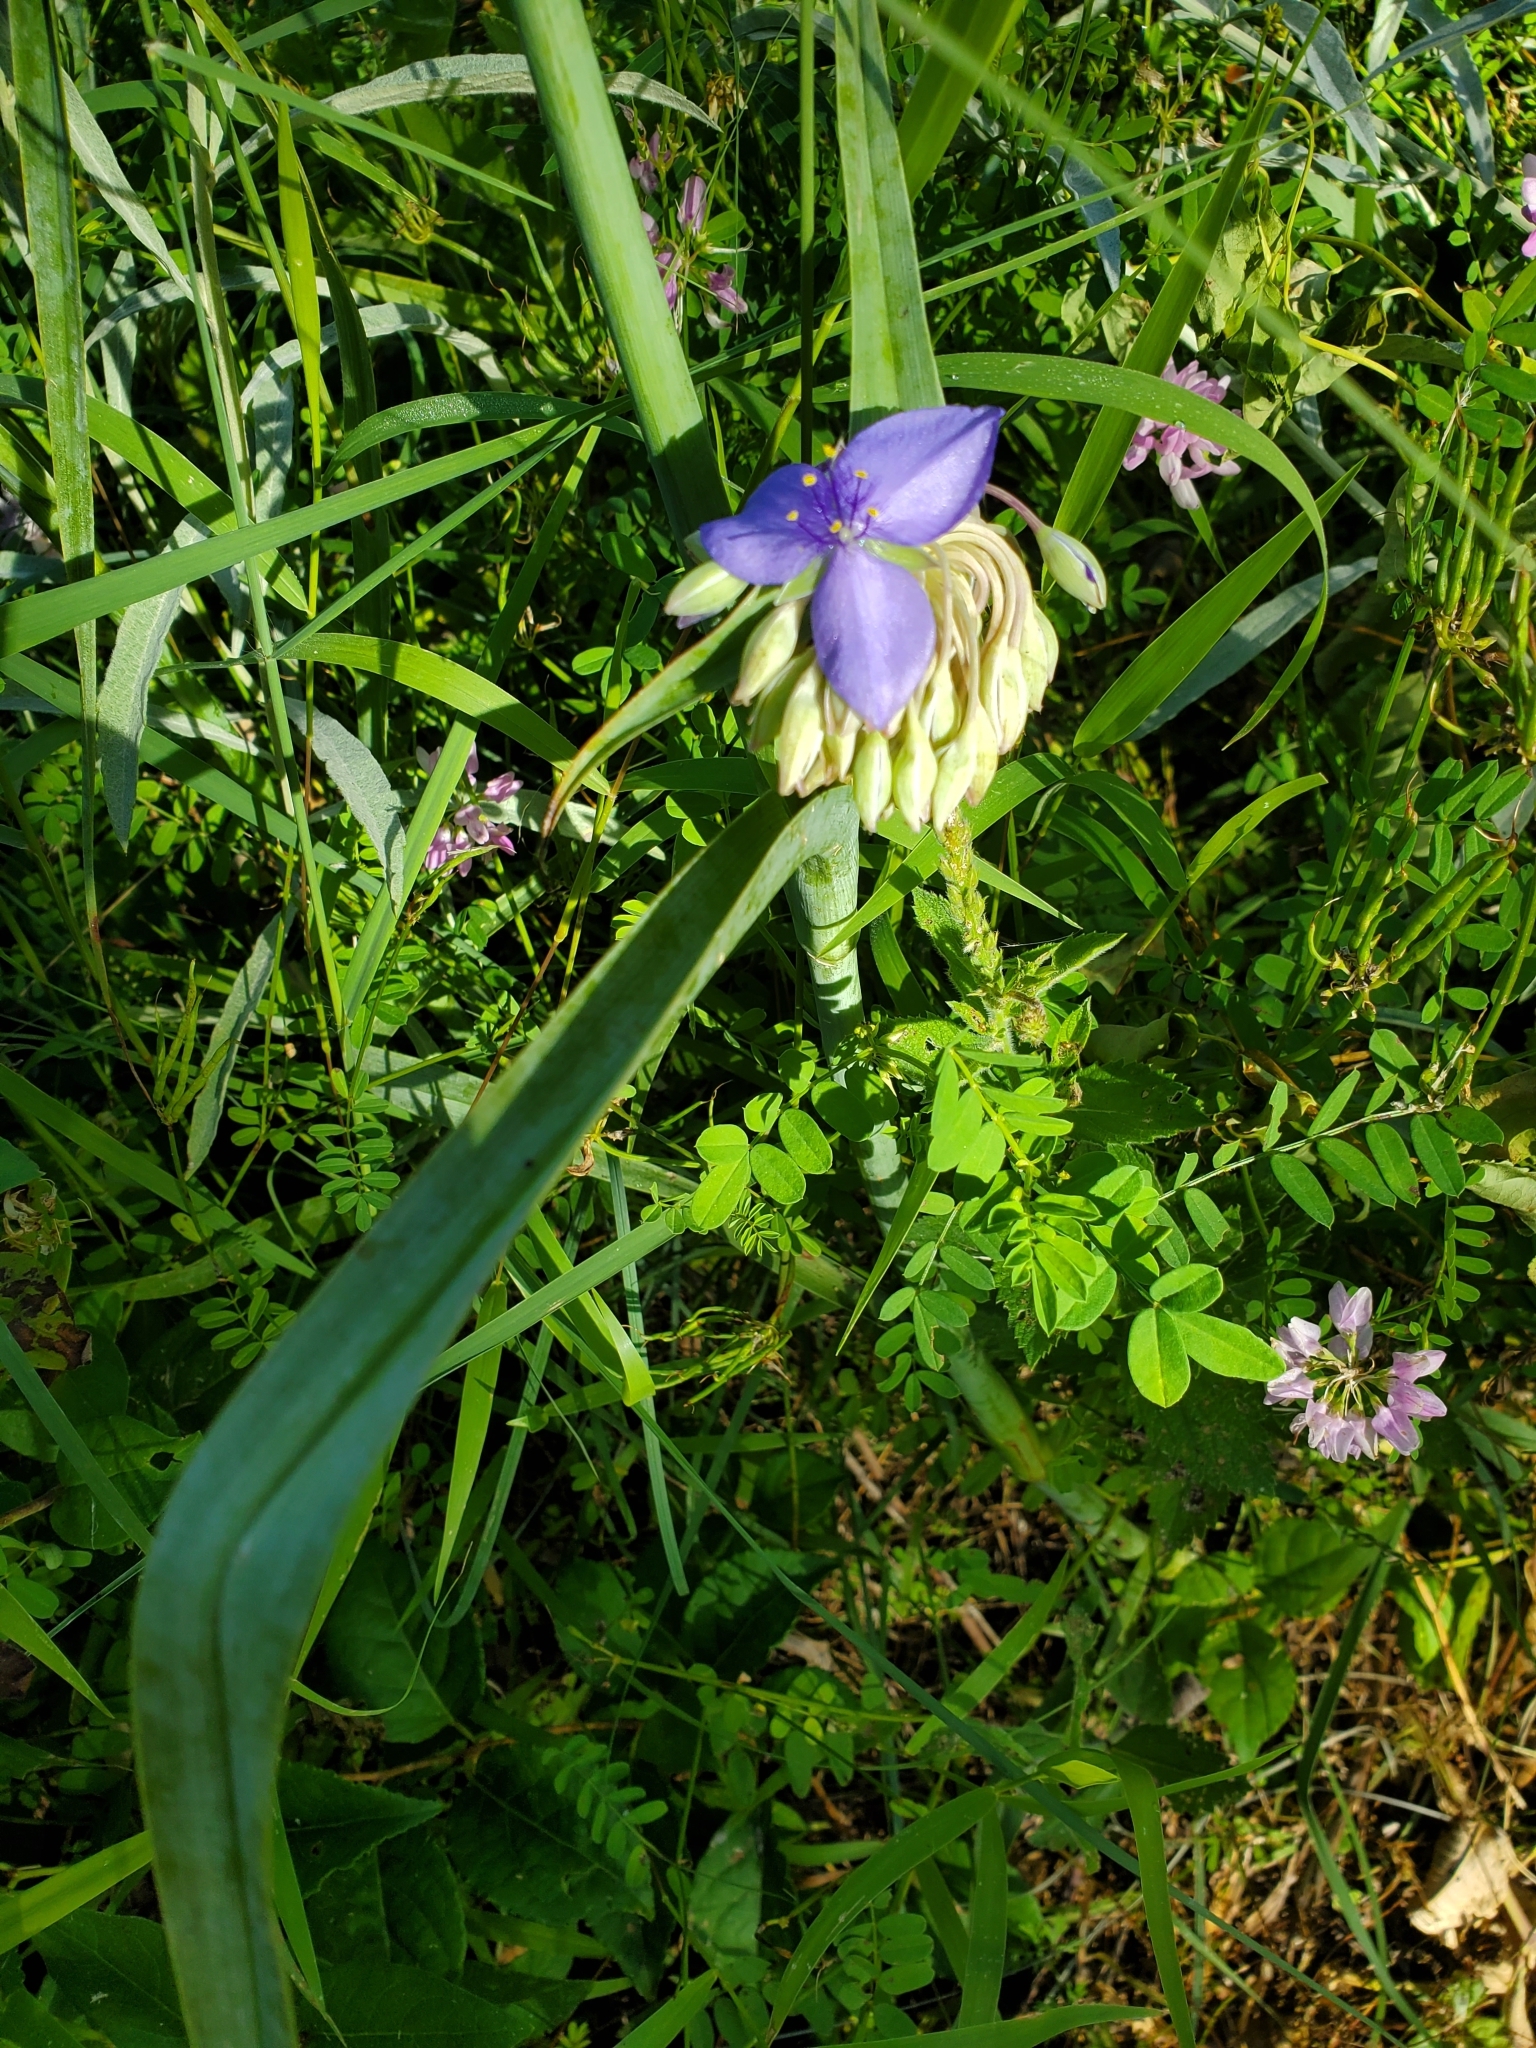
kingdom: Plantae
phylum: Tracheophyta
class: Liliopsida
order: Commelinales
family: Commelinaceae
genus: Tradescantia
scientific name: Tradescantia ohiensis
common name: Ohio spiderwort
